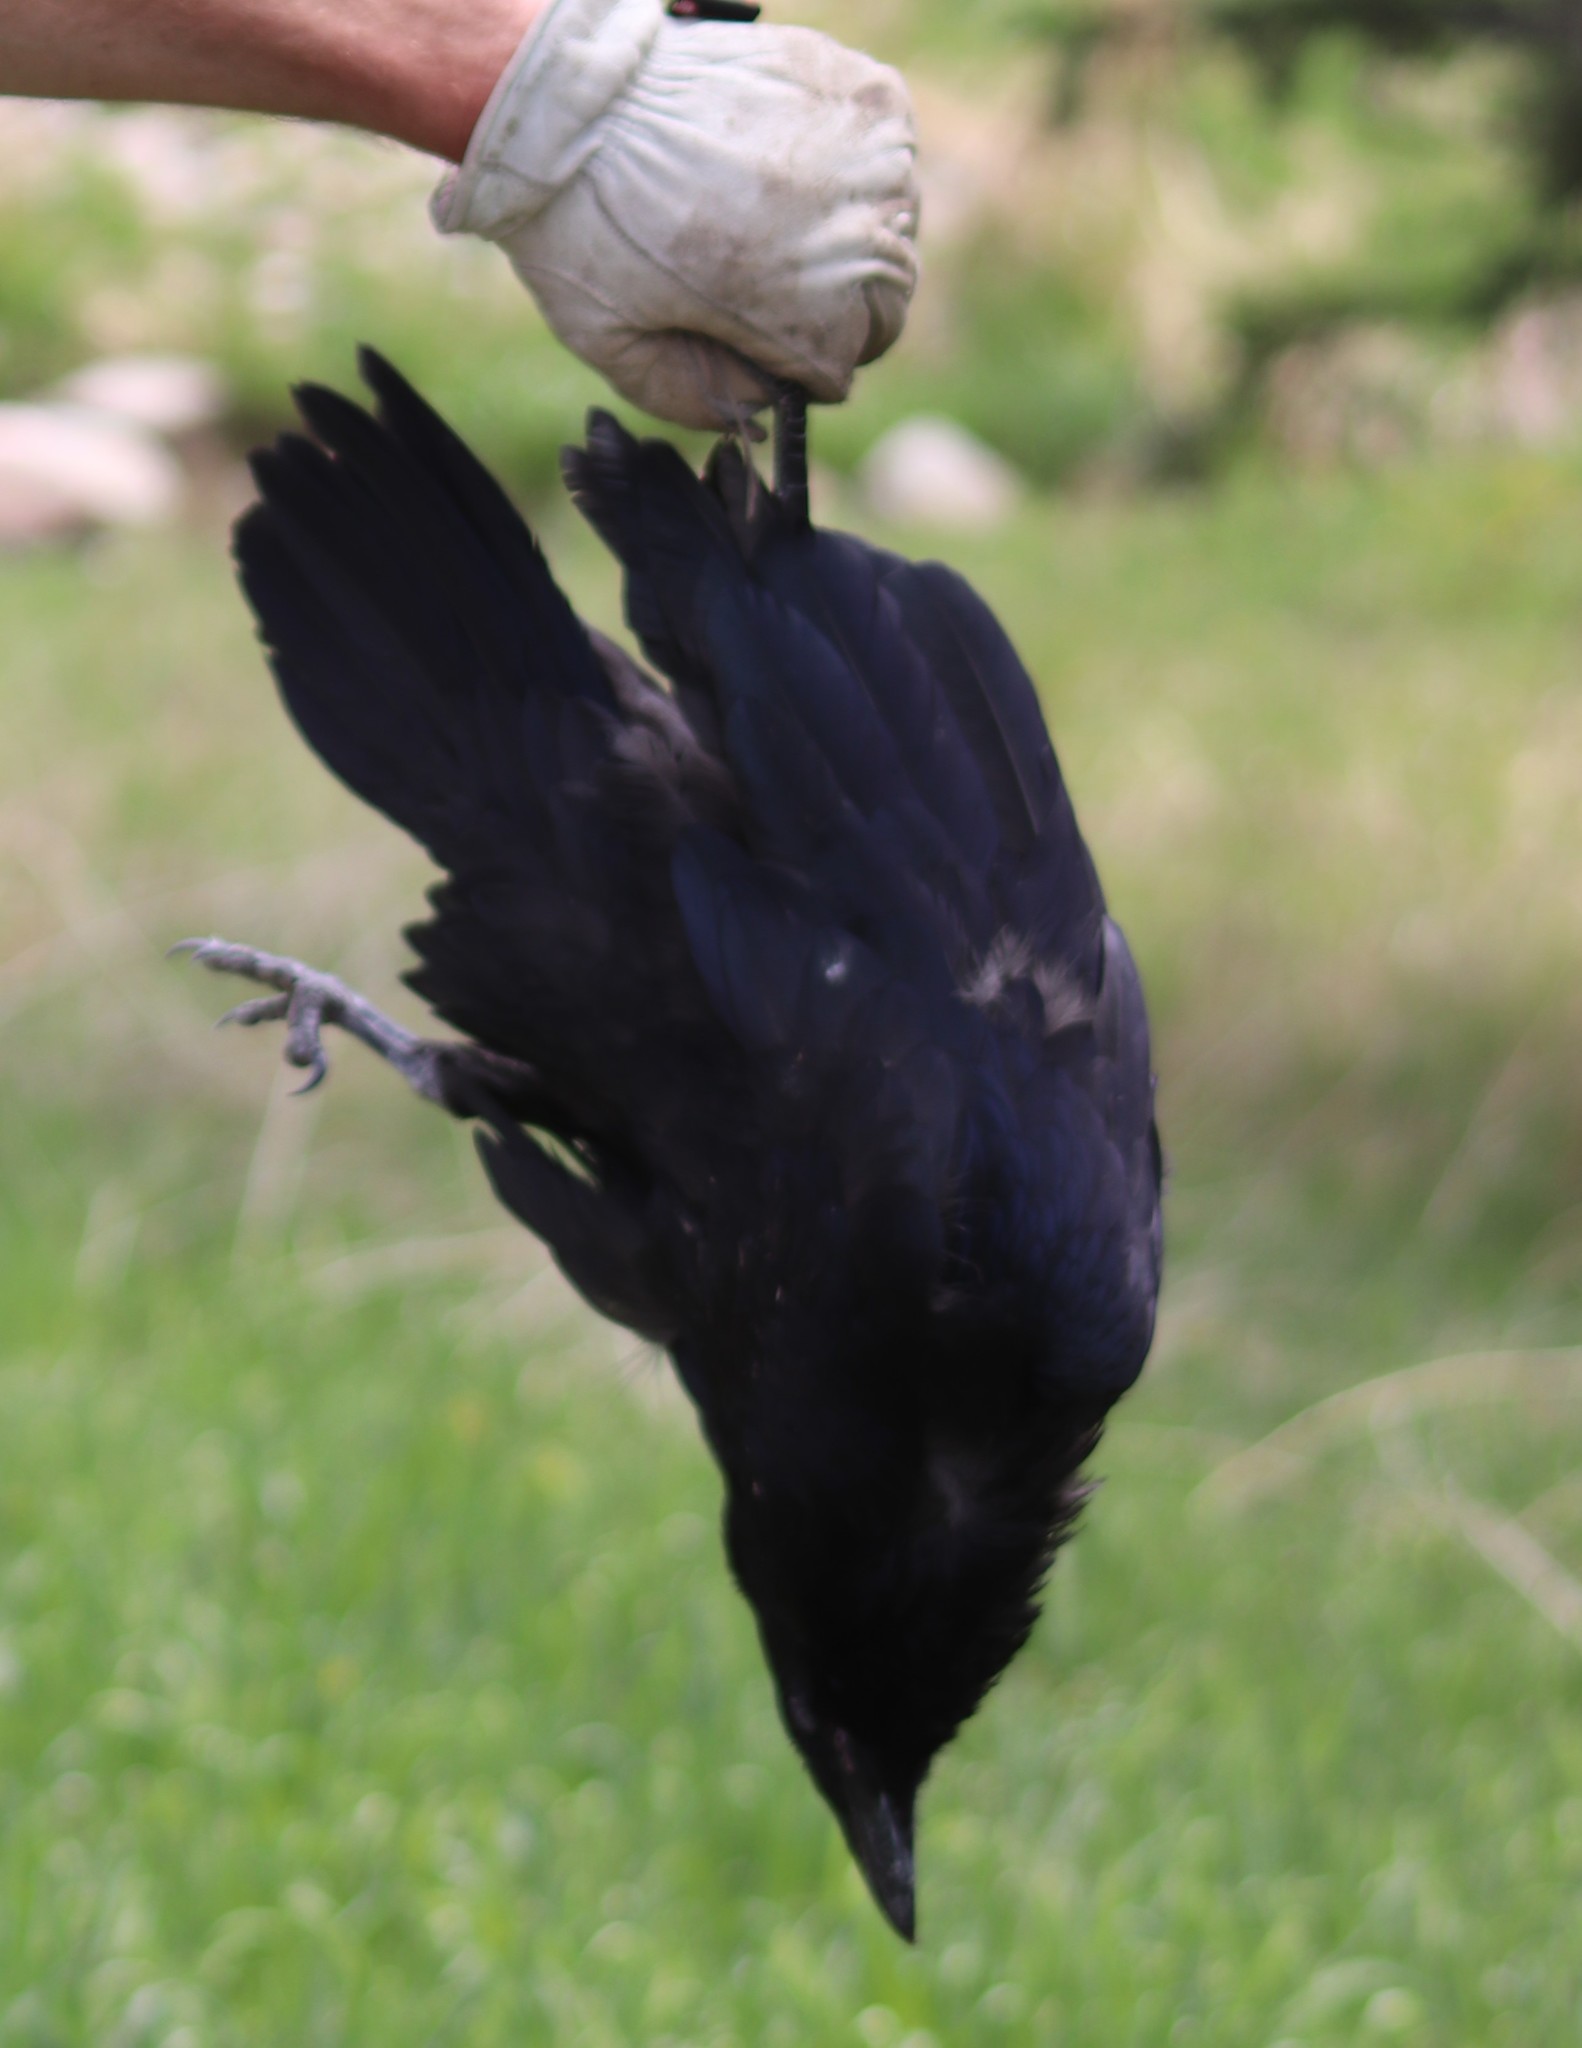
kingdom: Animalia
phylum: Chordata
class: Aves
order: Passeriformes
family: Corvidae
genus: Corvus
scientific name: Corvus brachyrhynchos
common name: American crow
